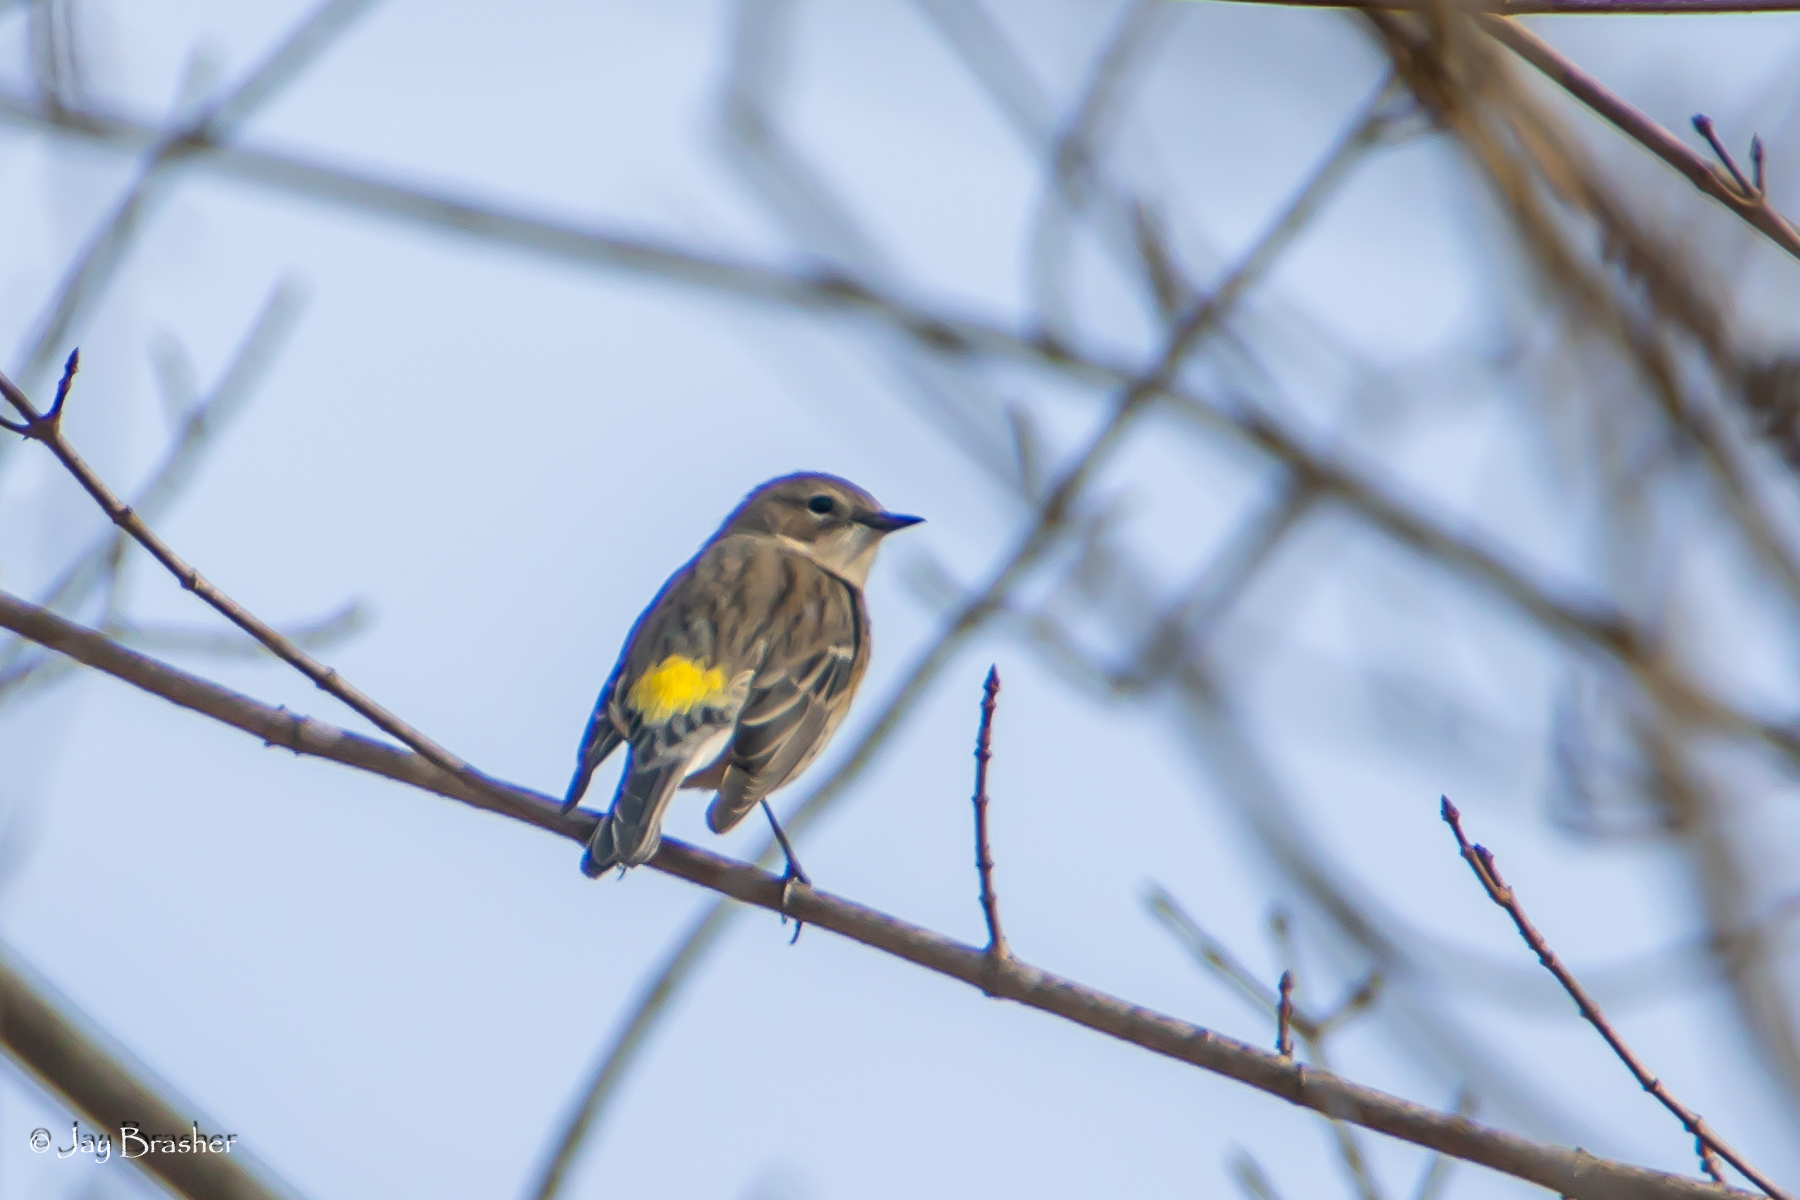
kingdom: Animalia
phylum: Chordata
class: Aves
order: Passeriformes
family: Parulidae
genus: Setophaga
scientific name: Setophaga coronata
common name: Myrtle warbler
